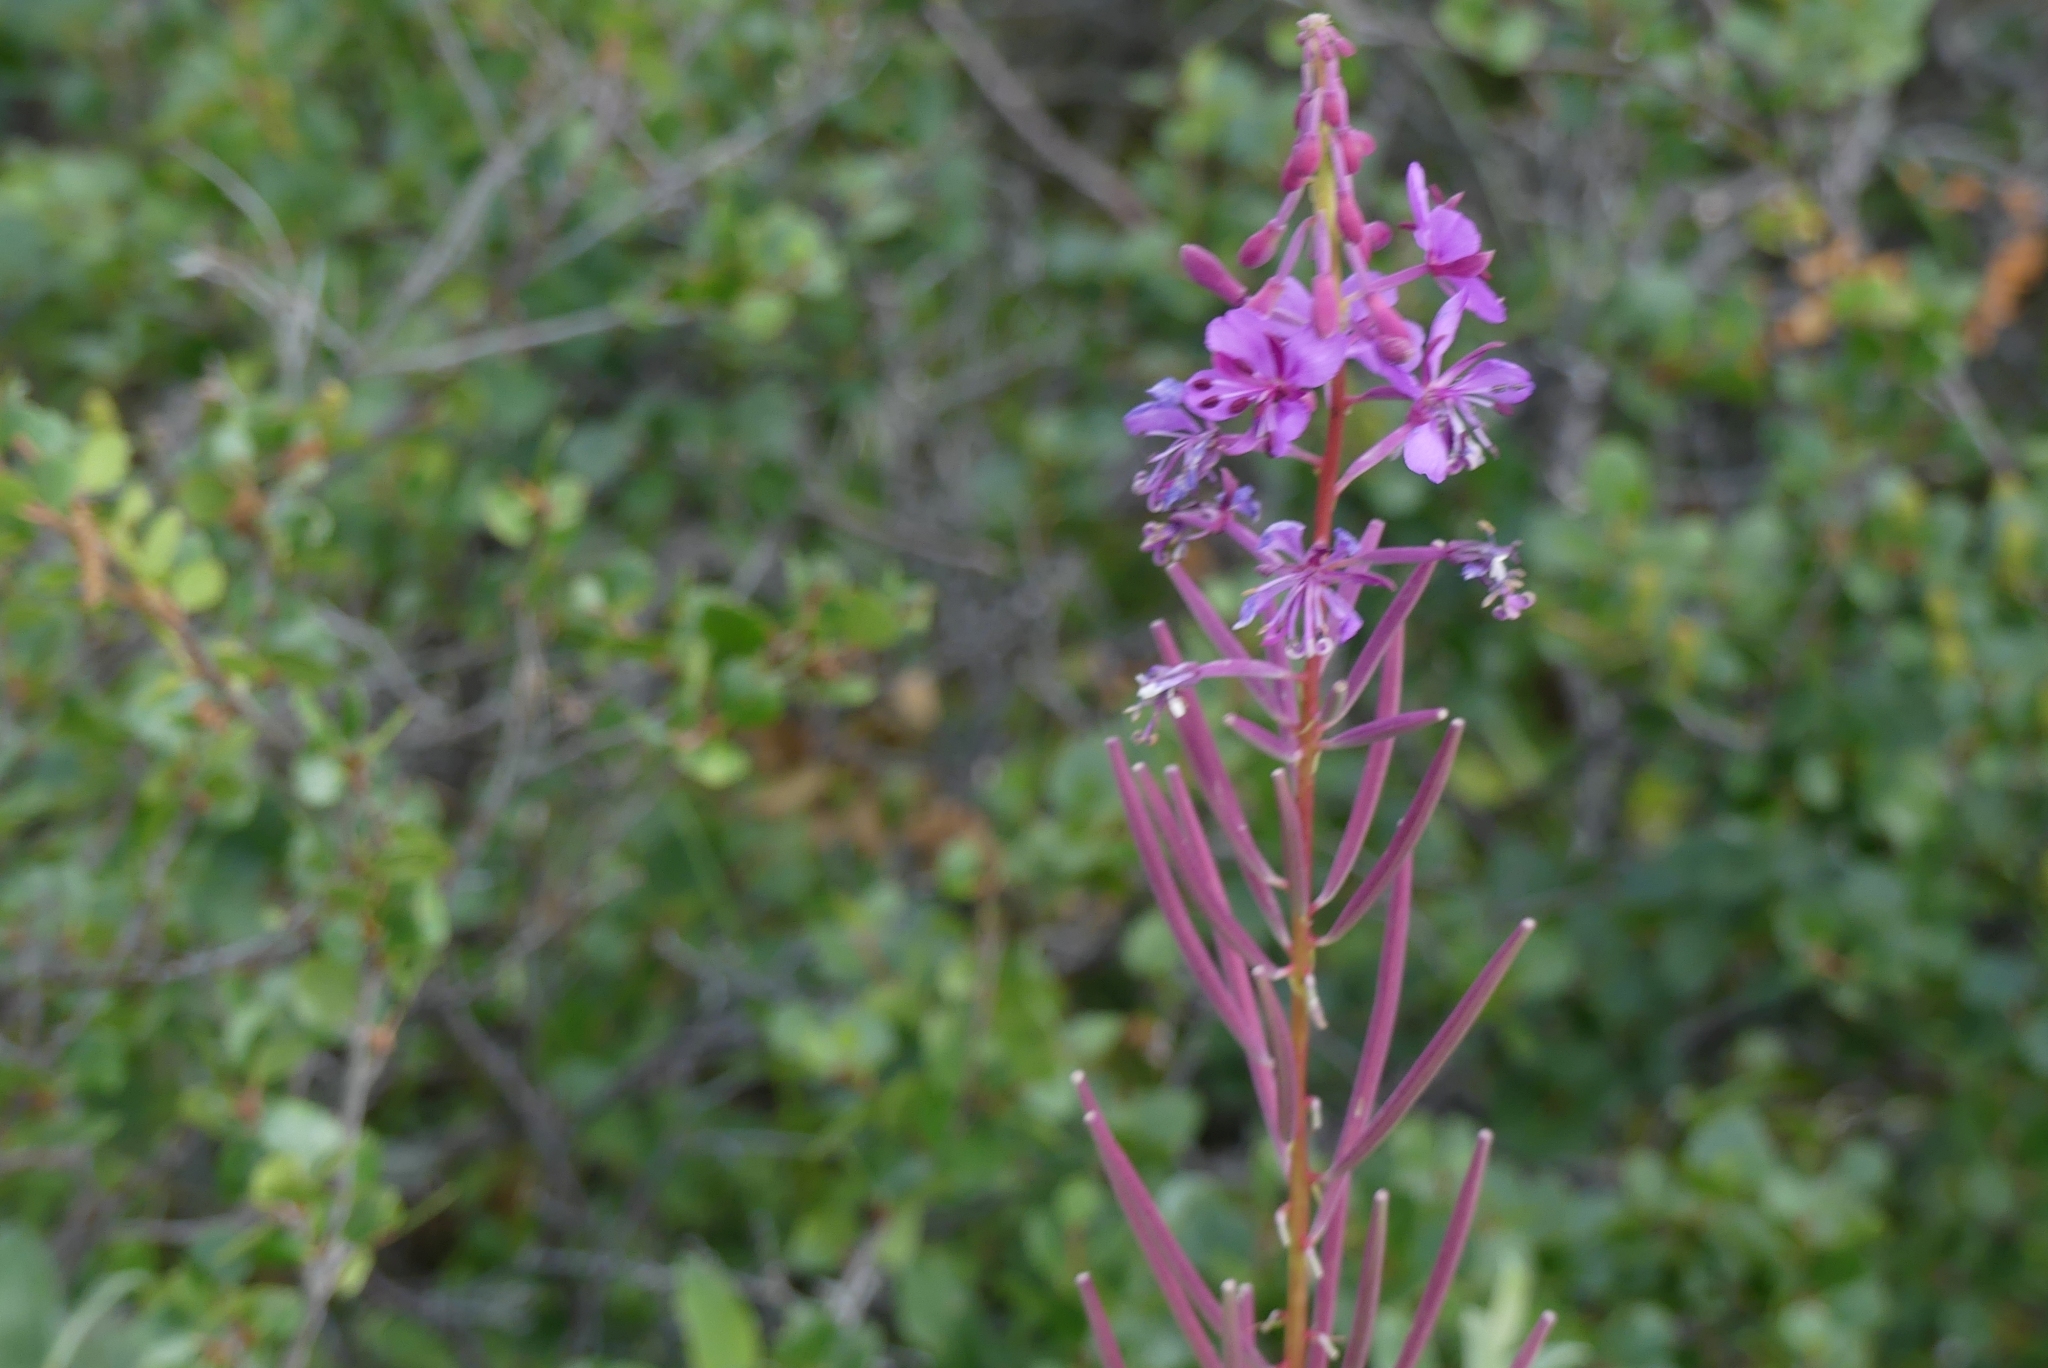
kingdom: Plantae
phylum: Tracheophyta
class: Magnoliopsida
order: Myrtales
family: Onagraceae
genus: Chamaenerion
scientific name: Chamaenerion angustifolium
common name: Fireweed
